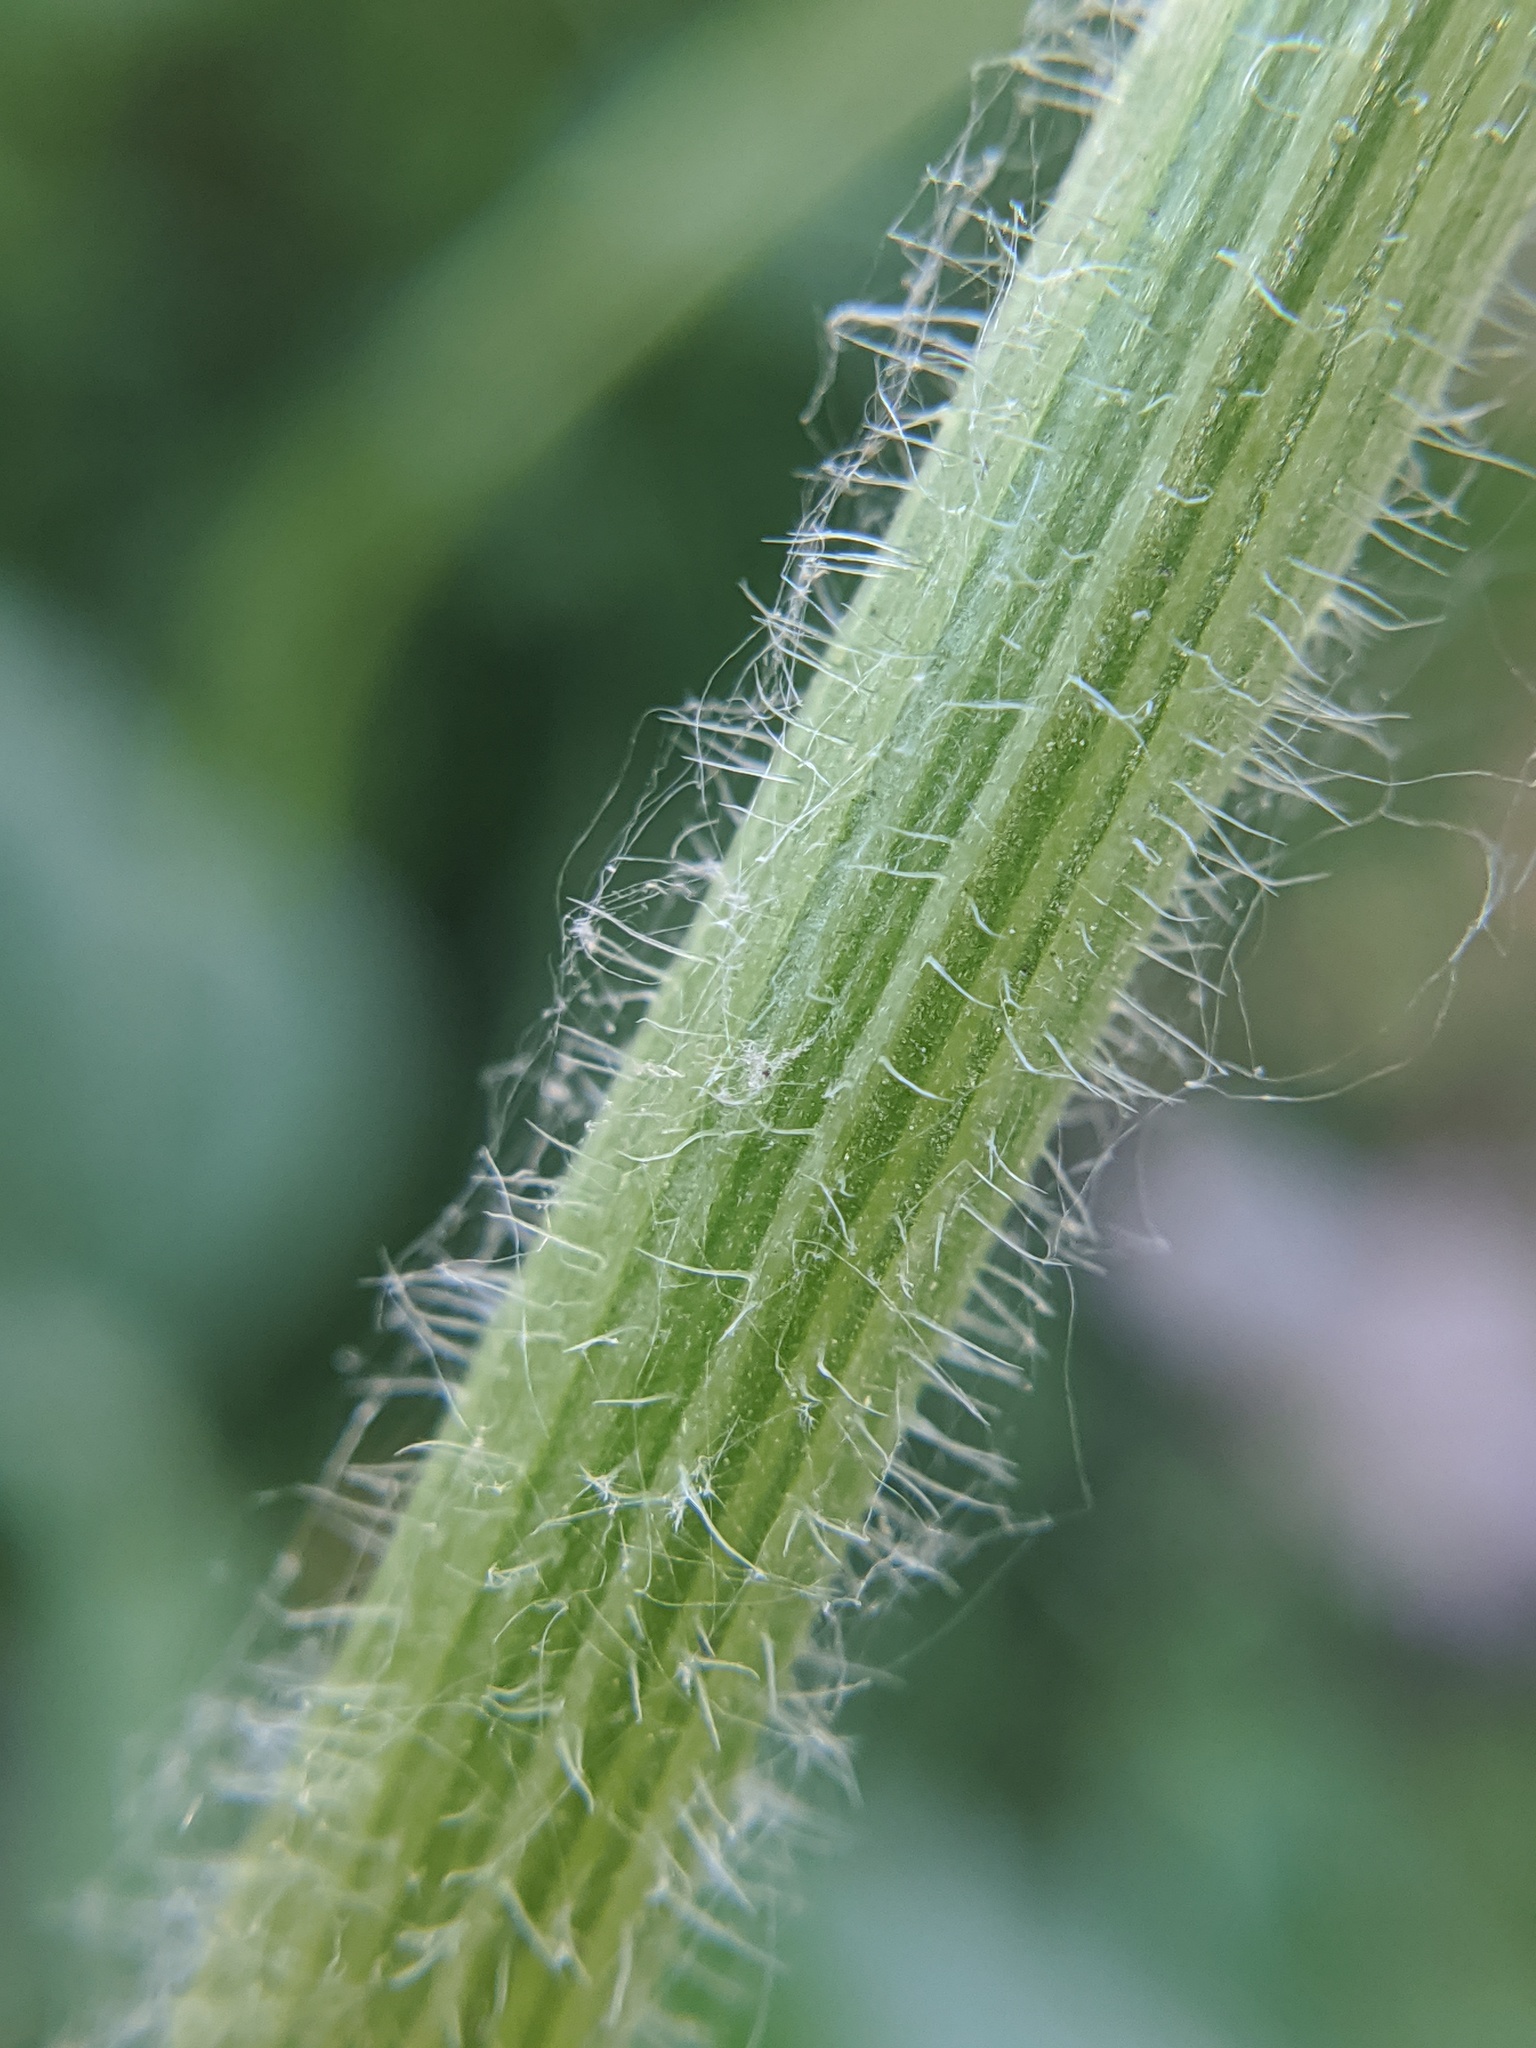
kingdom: Plantae
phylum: Tracheophyta
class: Magnoliopsida
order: Asterales
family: Asteraceae
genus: Erigeron
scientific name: Erigeron philadelphicus
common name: Robin's-plantain
